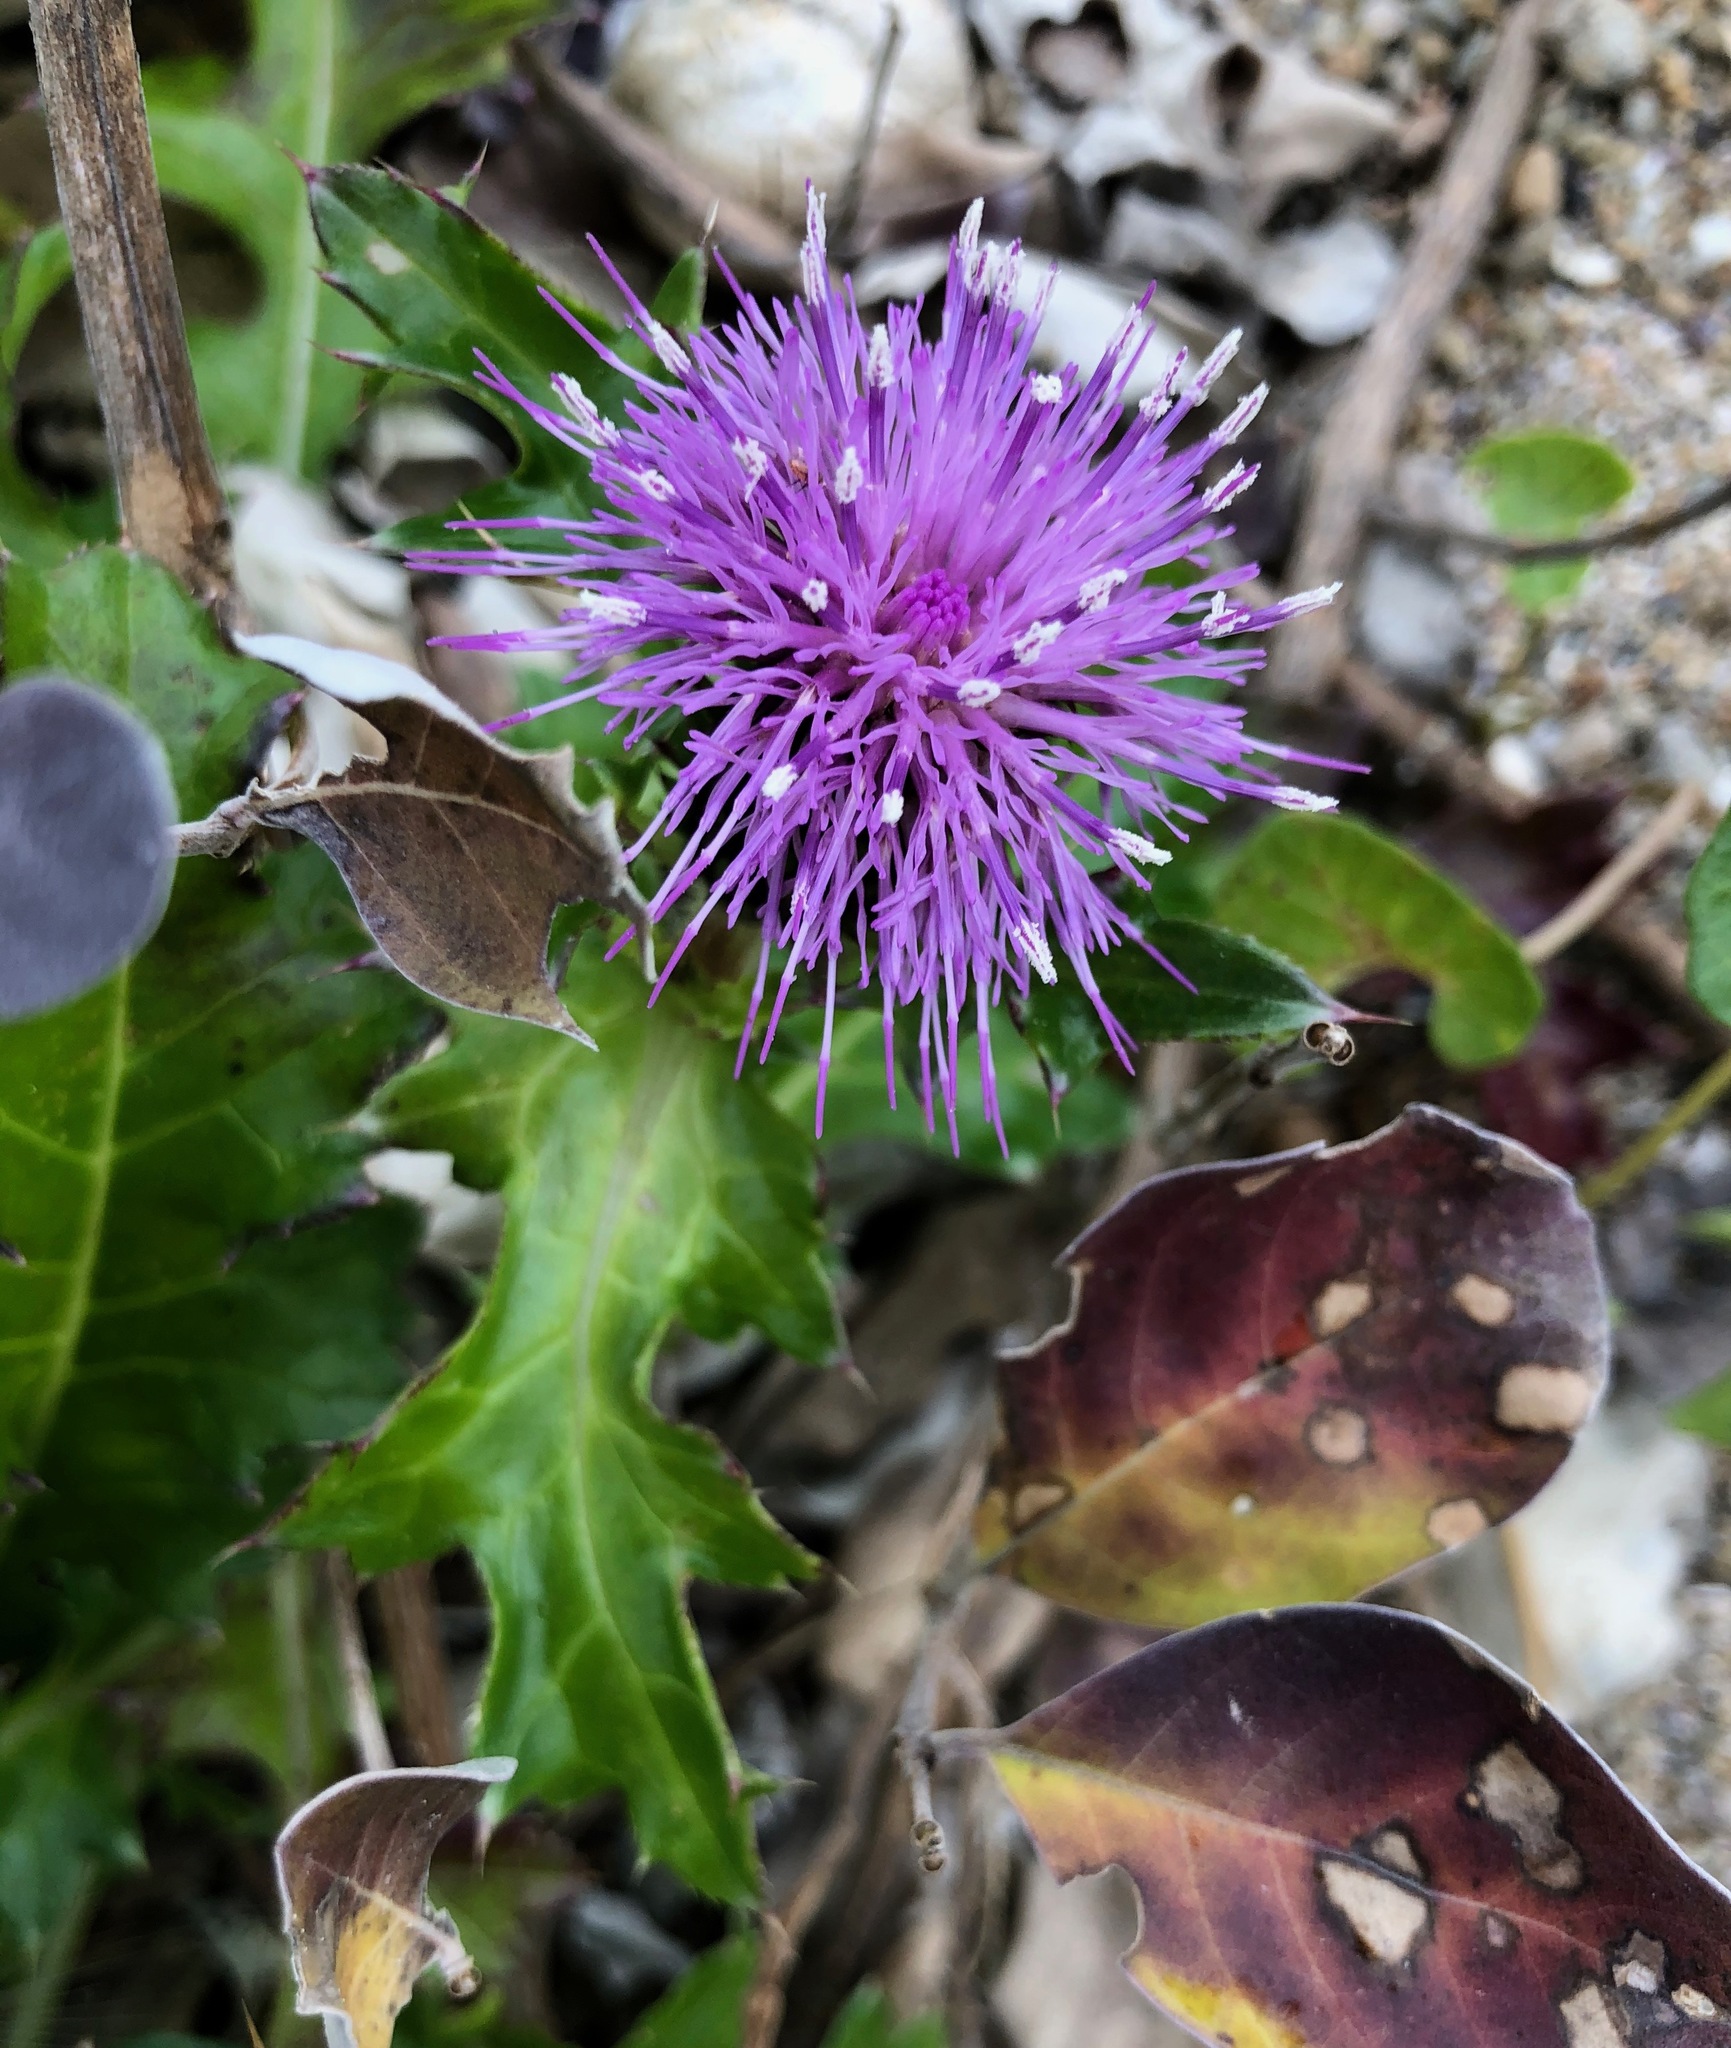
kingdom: Plantae
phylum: Tracheophyta
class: Magnoliopsida
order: Asterales
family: Asteraceae
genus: Cirsium
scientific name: Cirsium maritimum
